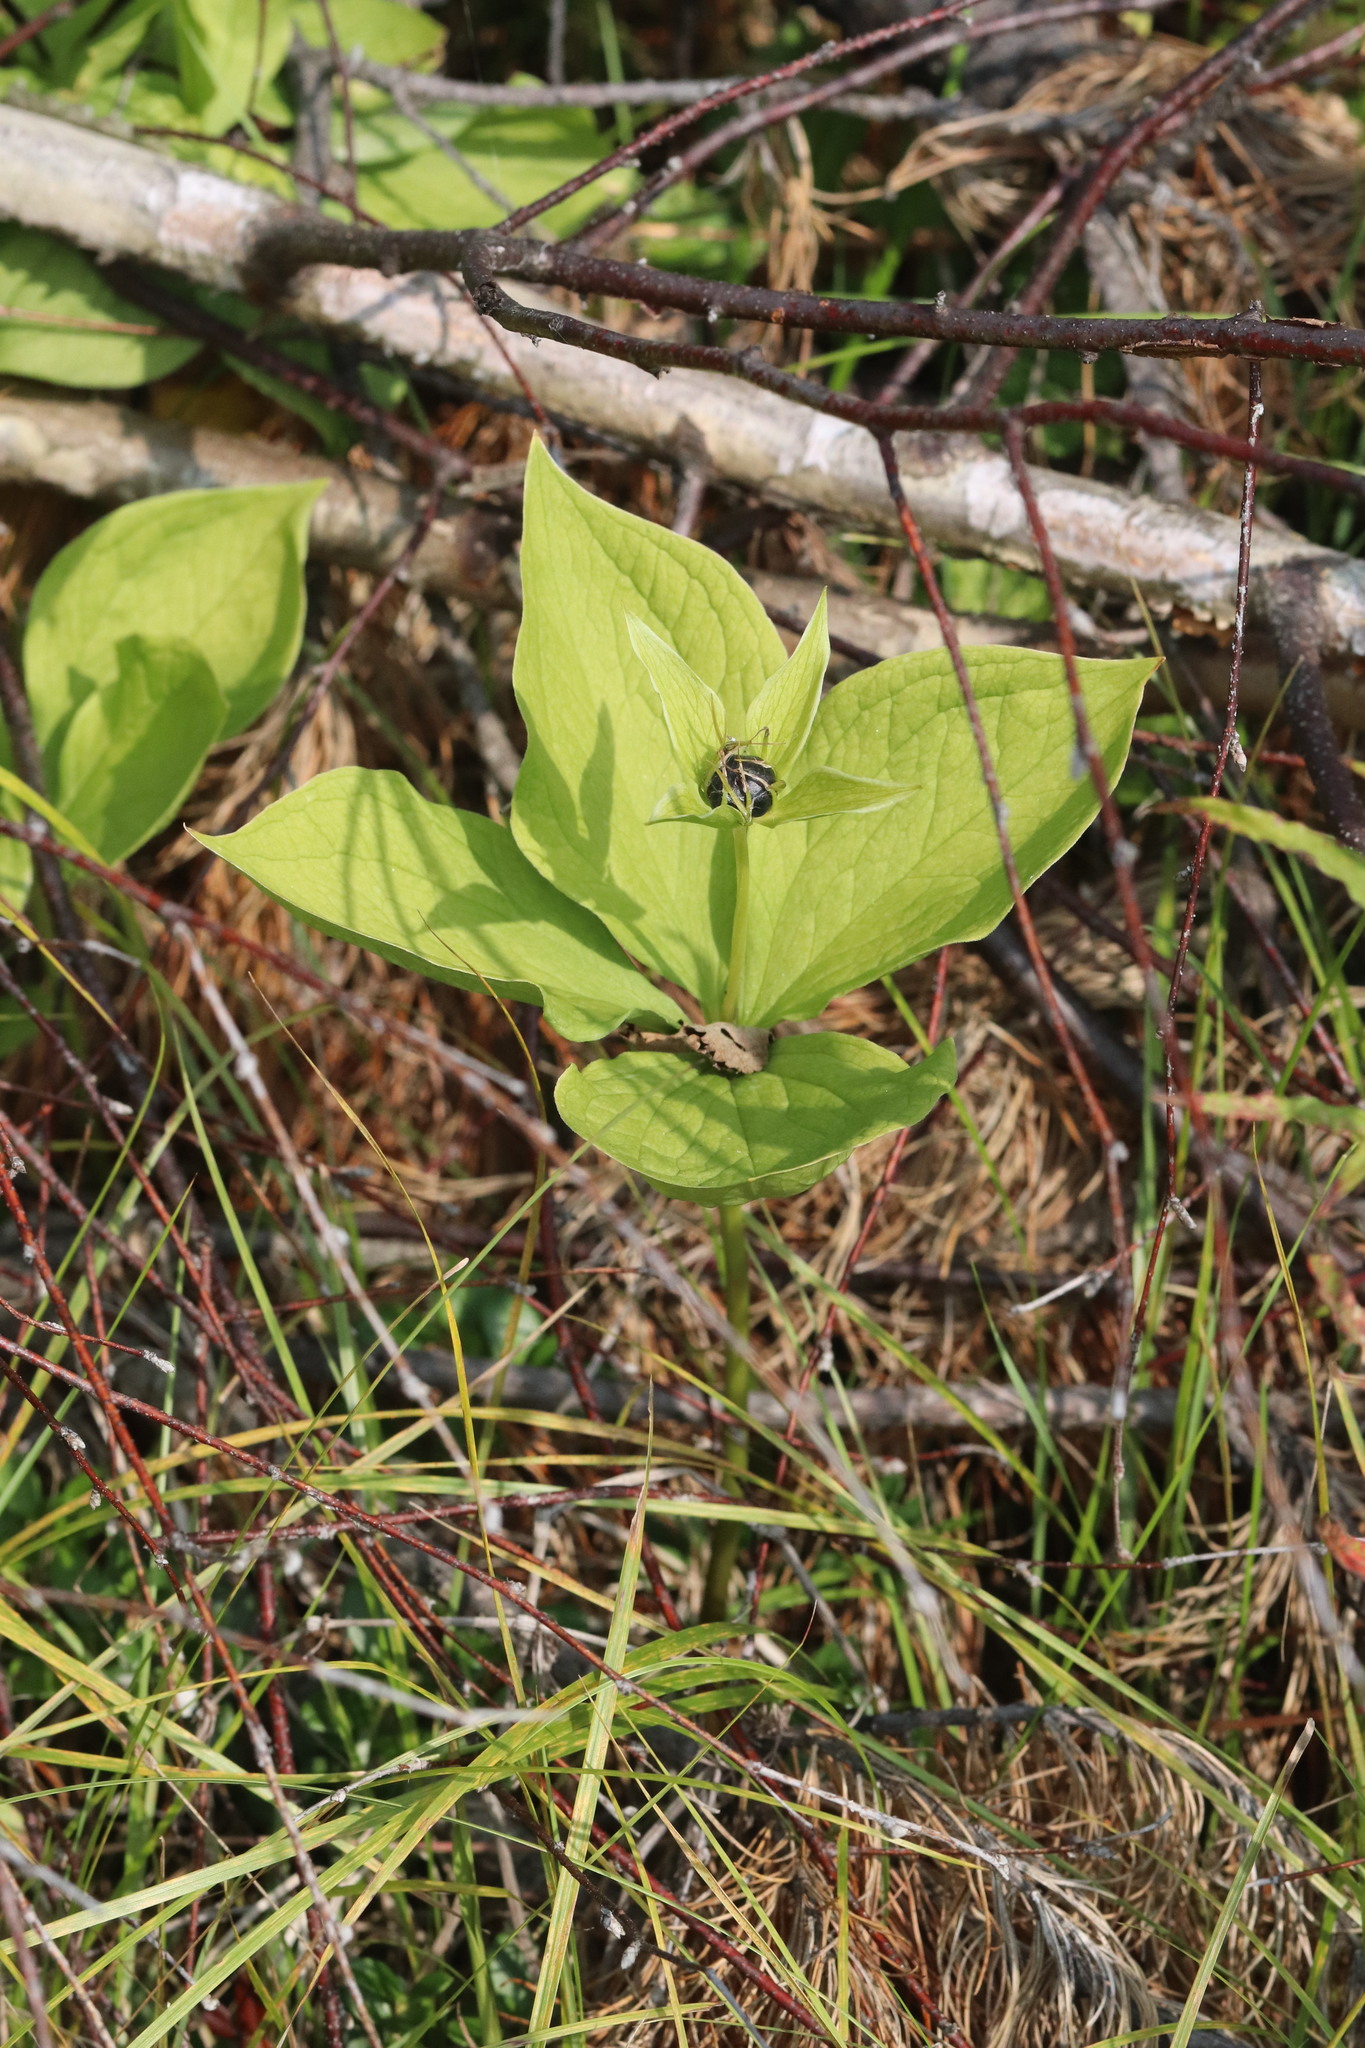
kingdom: Plantae
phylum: Tracheophyta
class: Liliopsida
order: Liliales
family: Melanthiaceae
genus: Paris
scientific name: Paris quadrifolia
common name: Herb-paris
